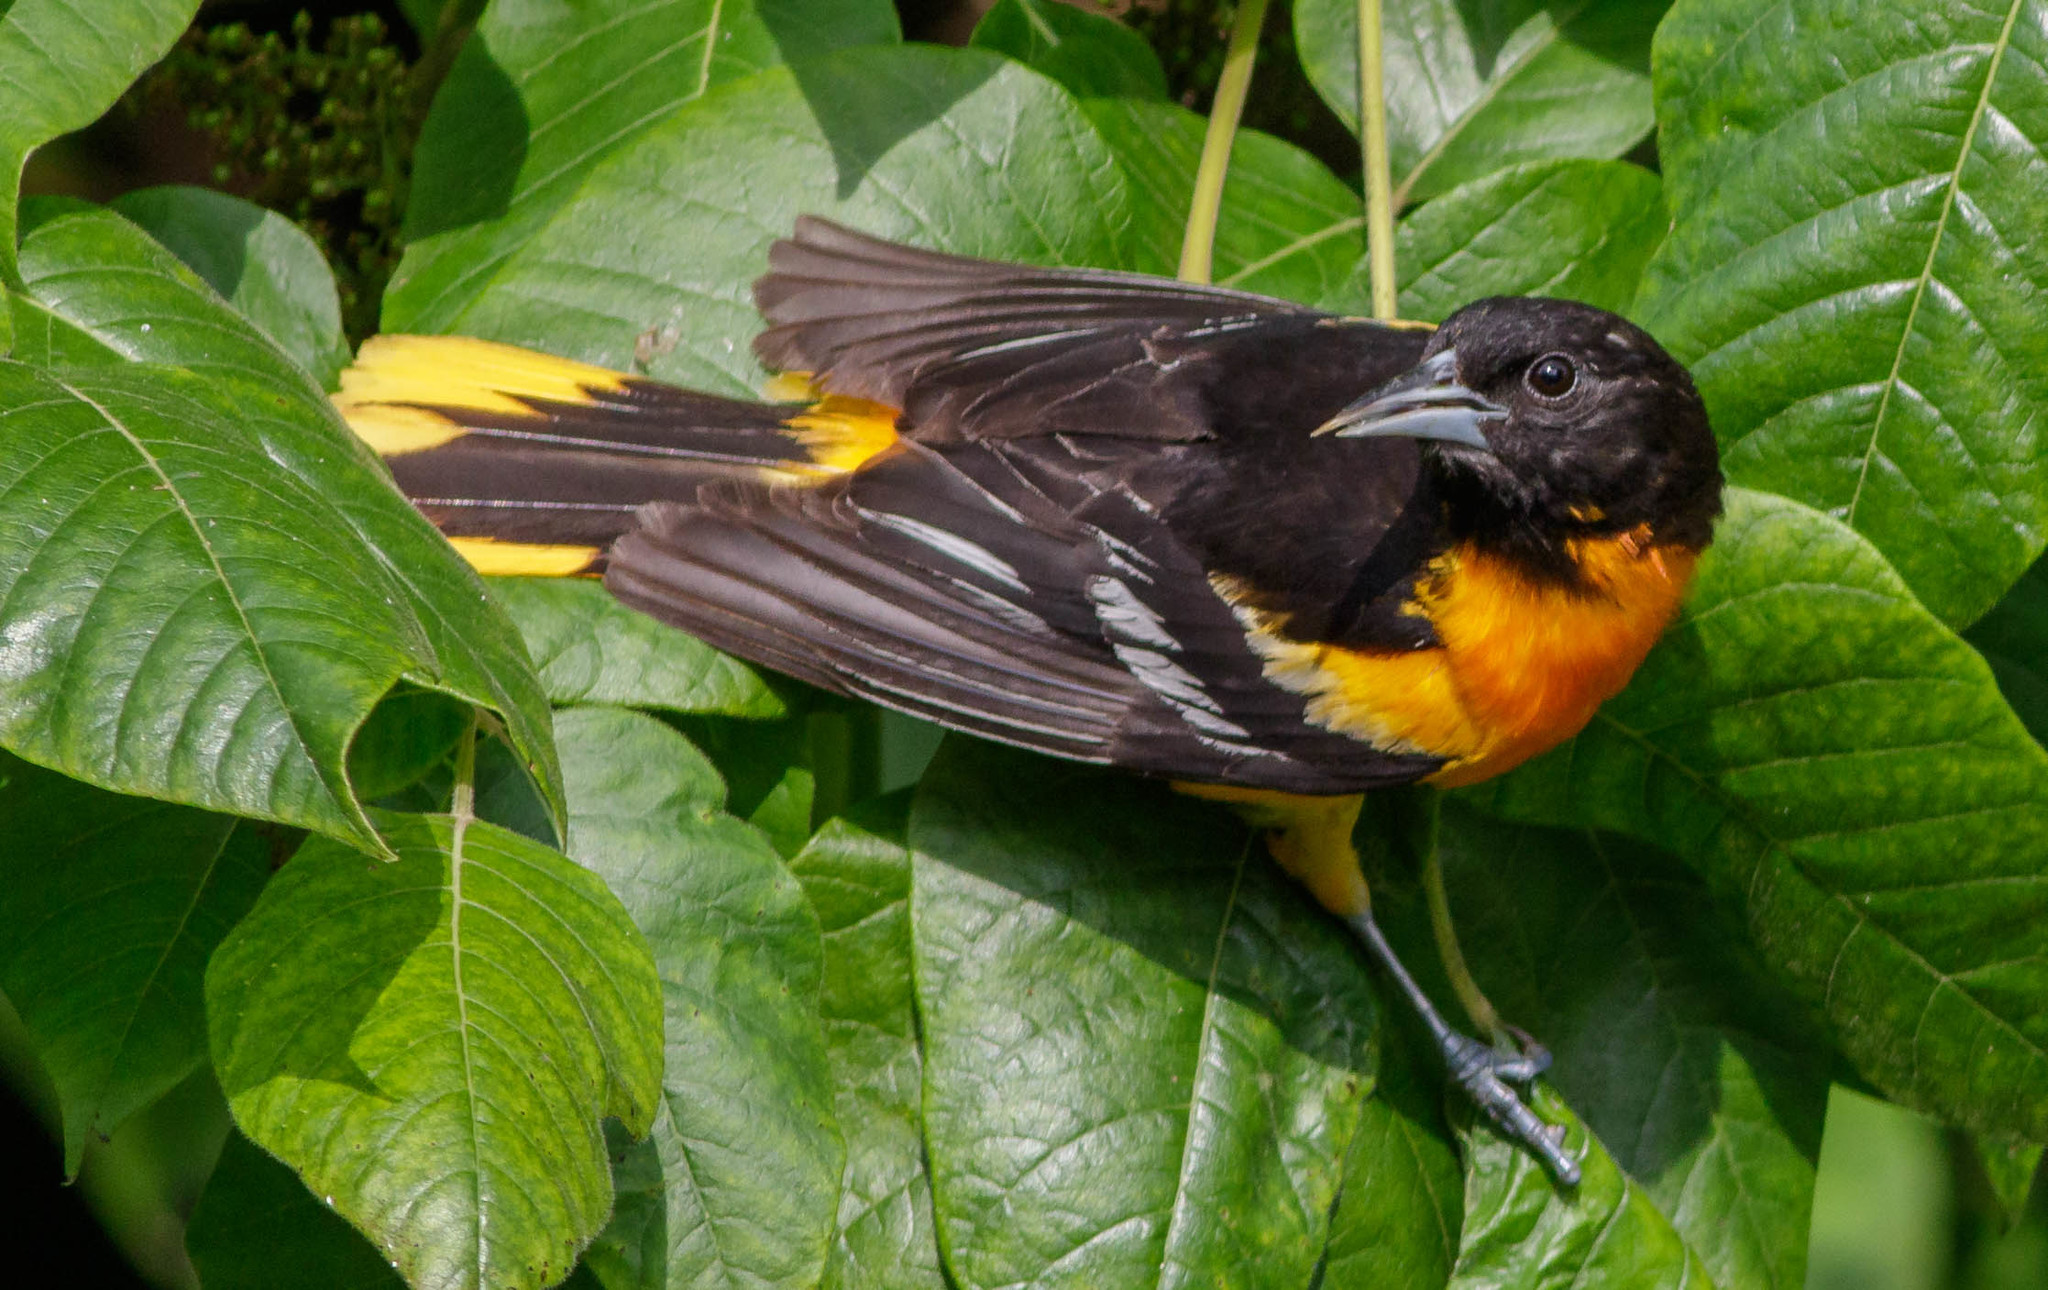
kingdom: Animalia
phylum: Chordata
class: Aves
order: Passeriformes
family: Icteridae
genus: Icterus
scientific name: Icterus galbula
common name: Baltimore oriole
